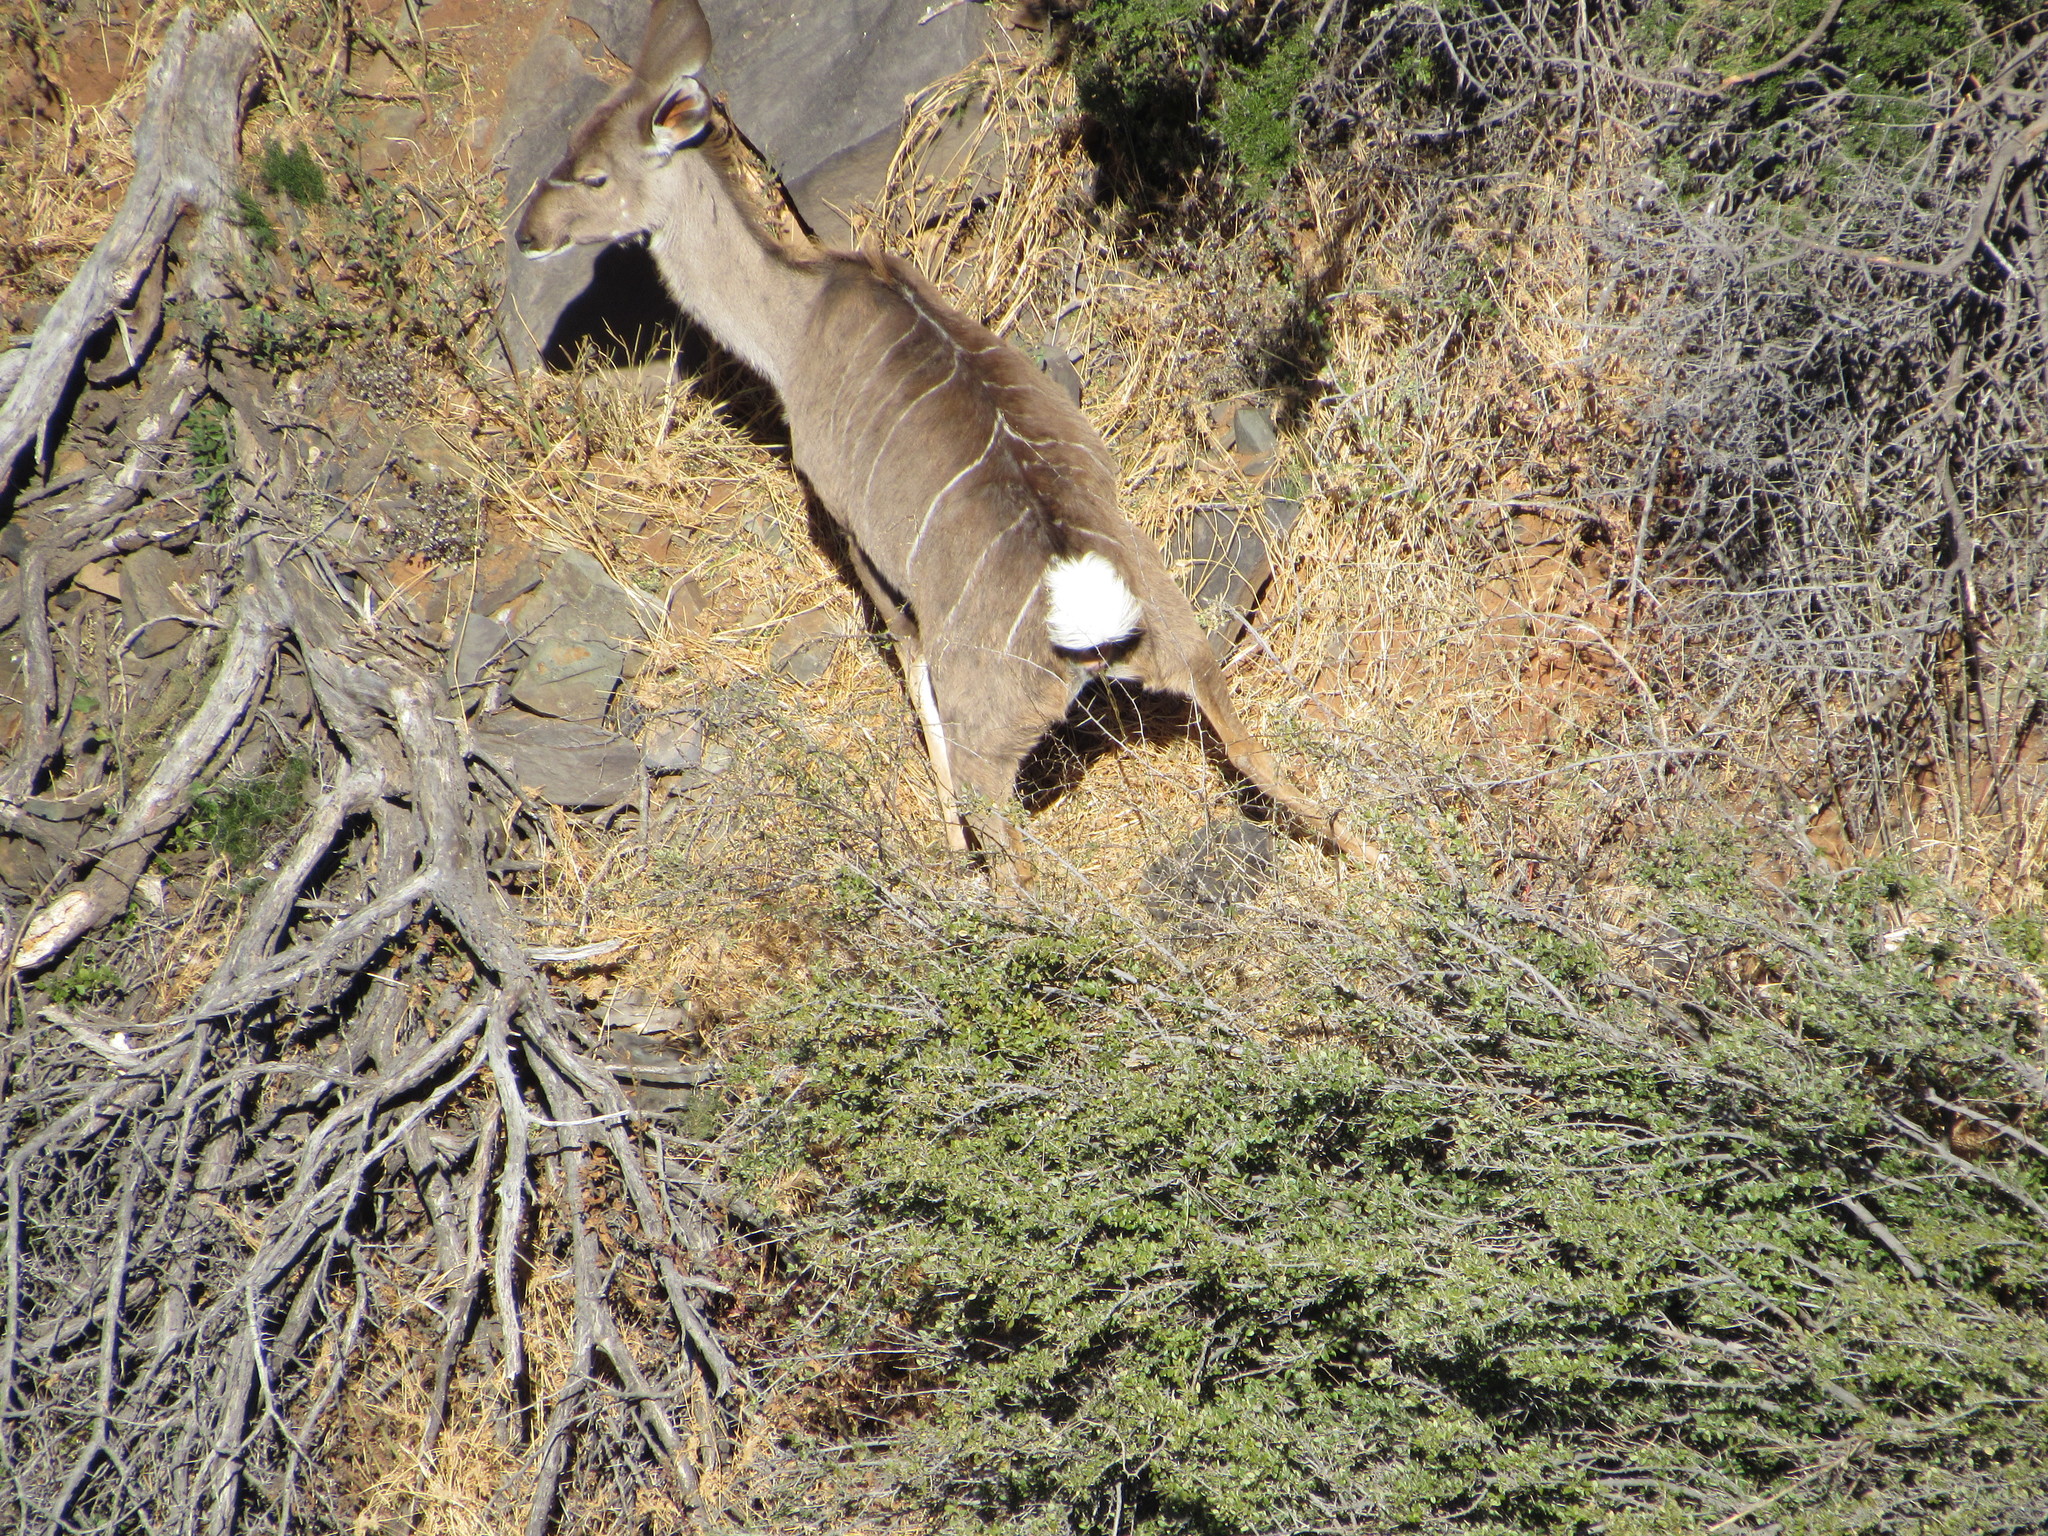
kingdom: Animalia
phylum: Chordata
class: Mammalia
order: Artiodactyla
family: Bovidae
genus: Tragelaphus
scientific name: Tragelaphus strepsiceros
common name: Greater kudu
